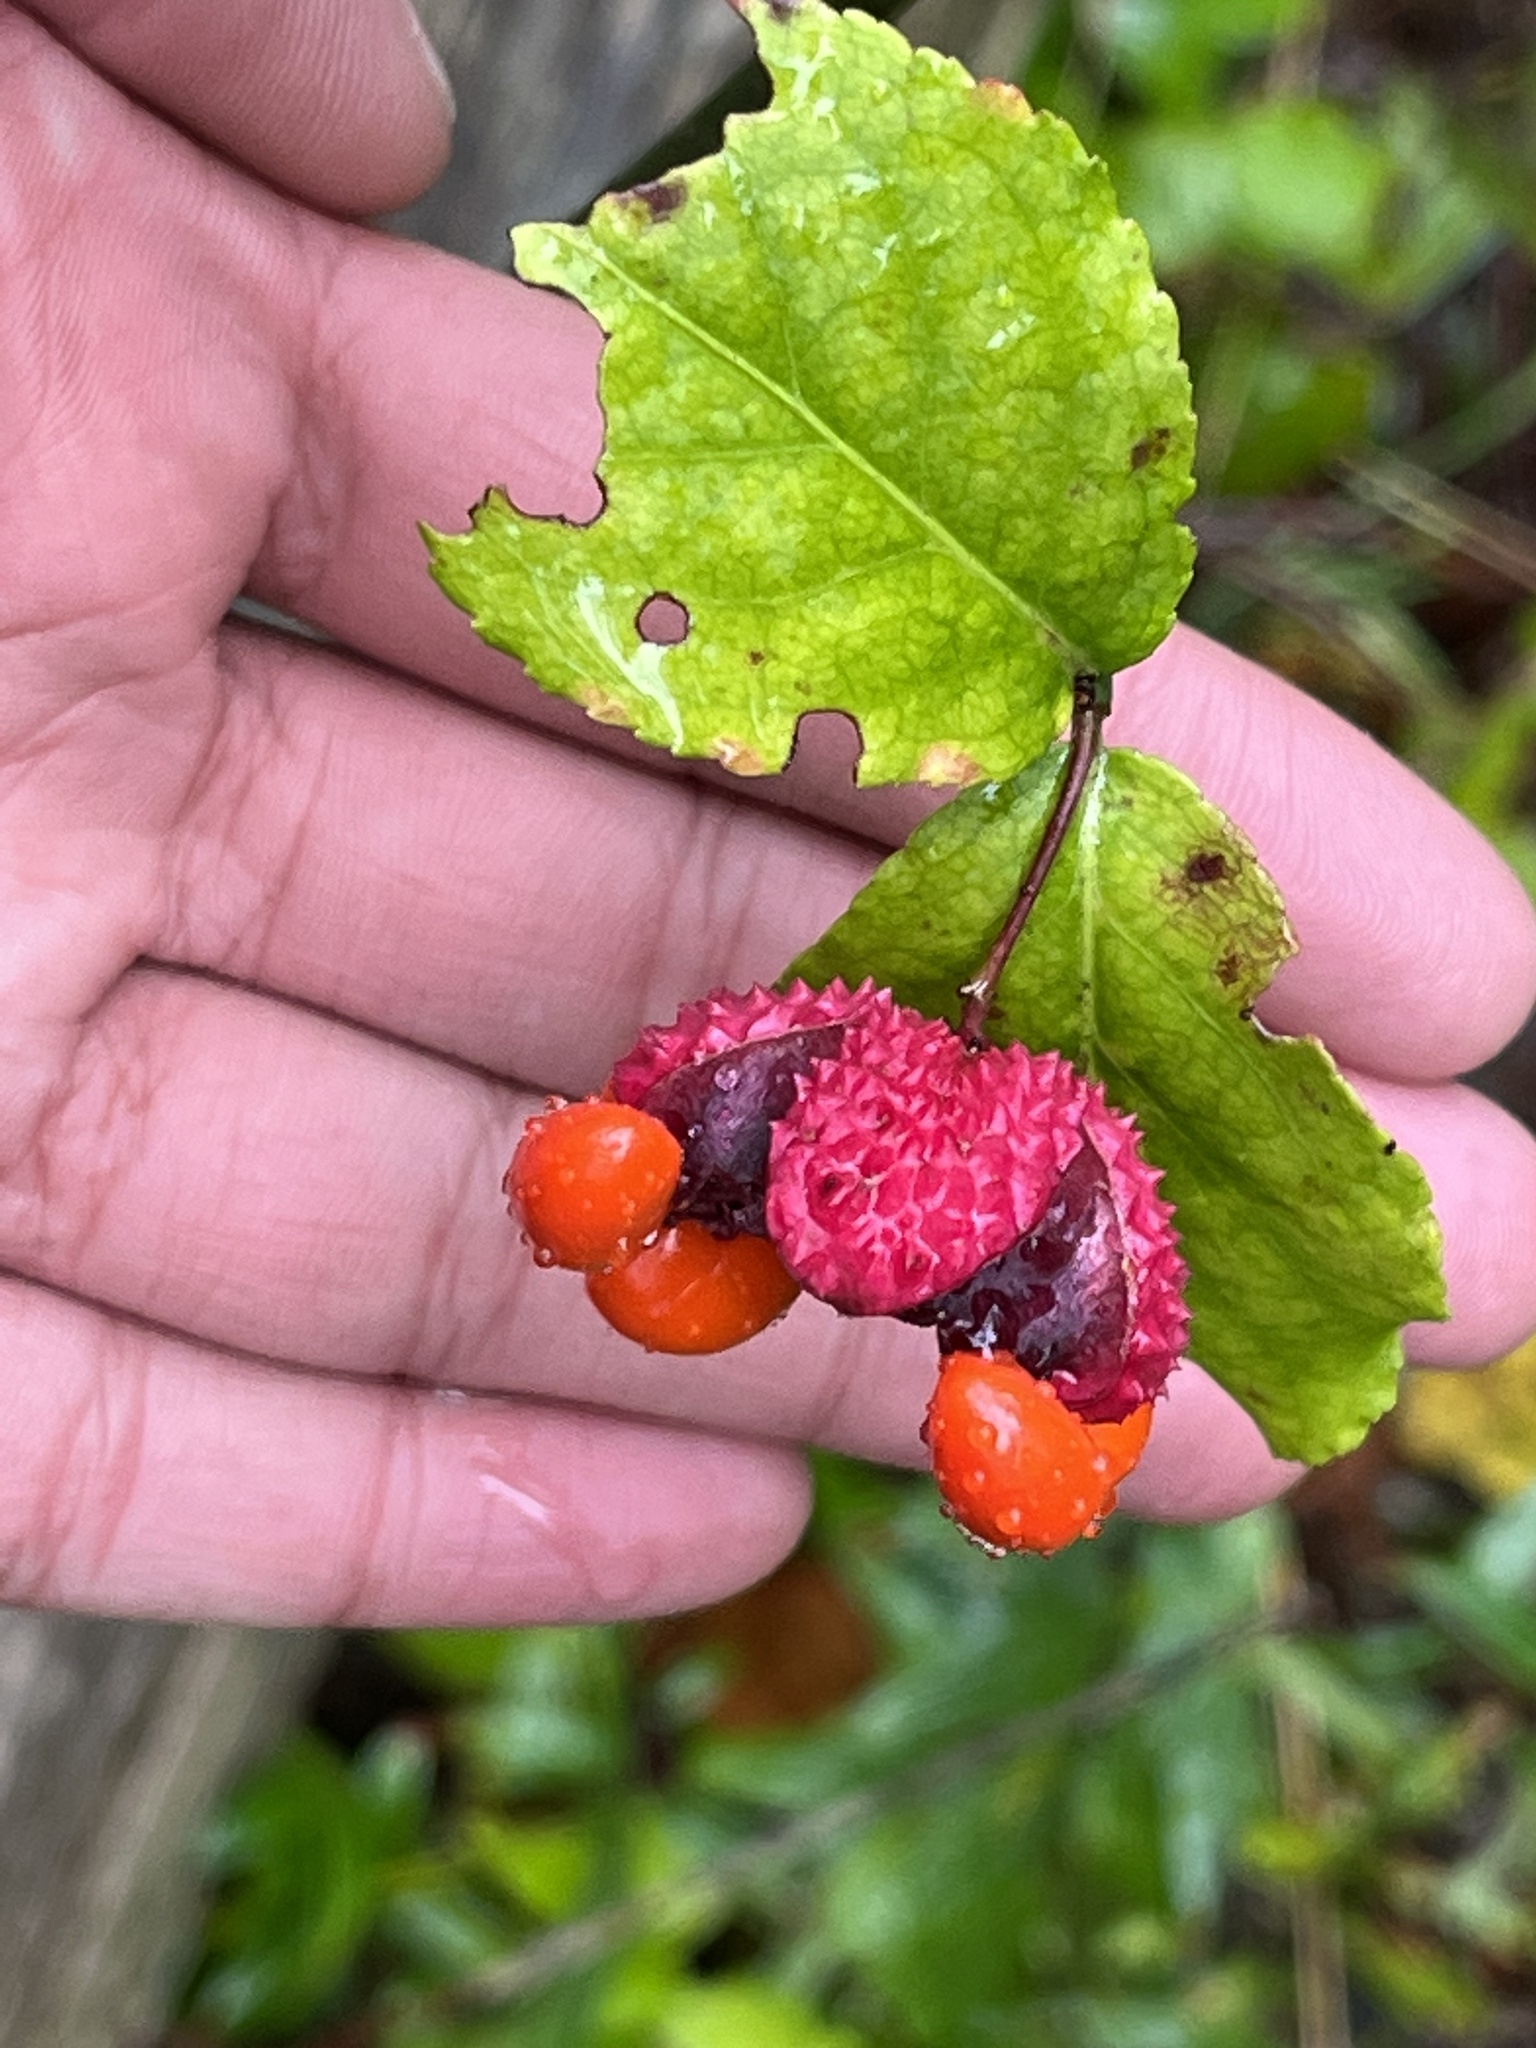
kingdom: Plantae
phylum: Tracheophyta
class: Magnoliopsida
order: Celastrales
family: Celastraceae
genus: Euonymus
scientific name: Euonymus americanus
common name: Bursting-heart
